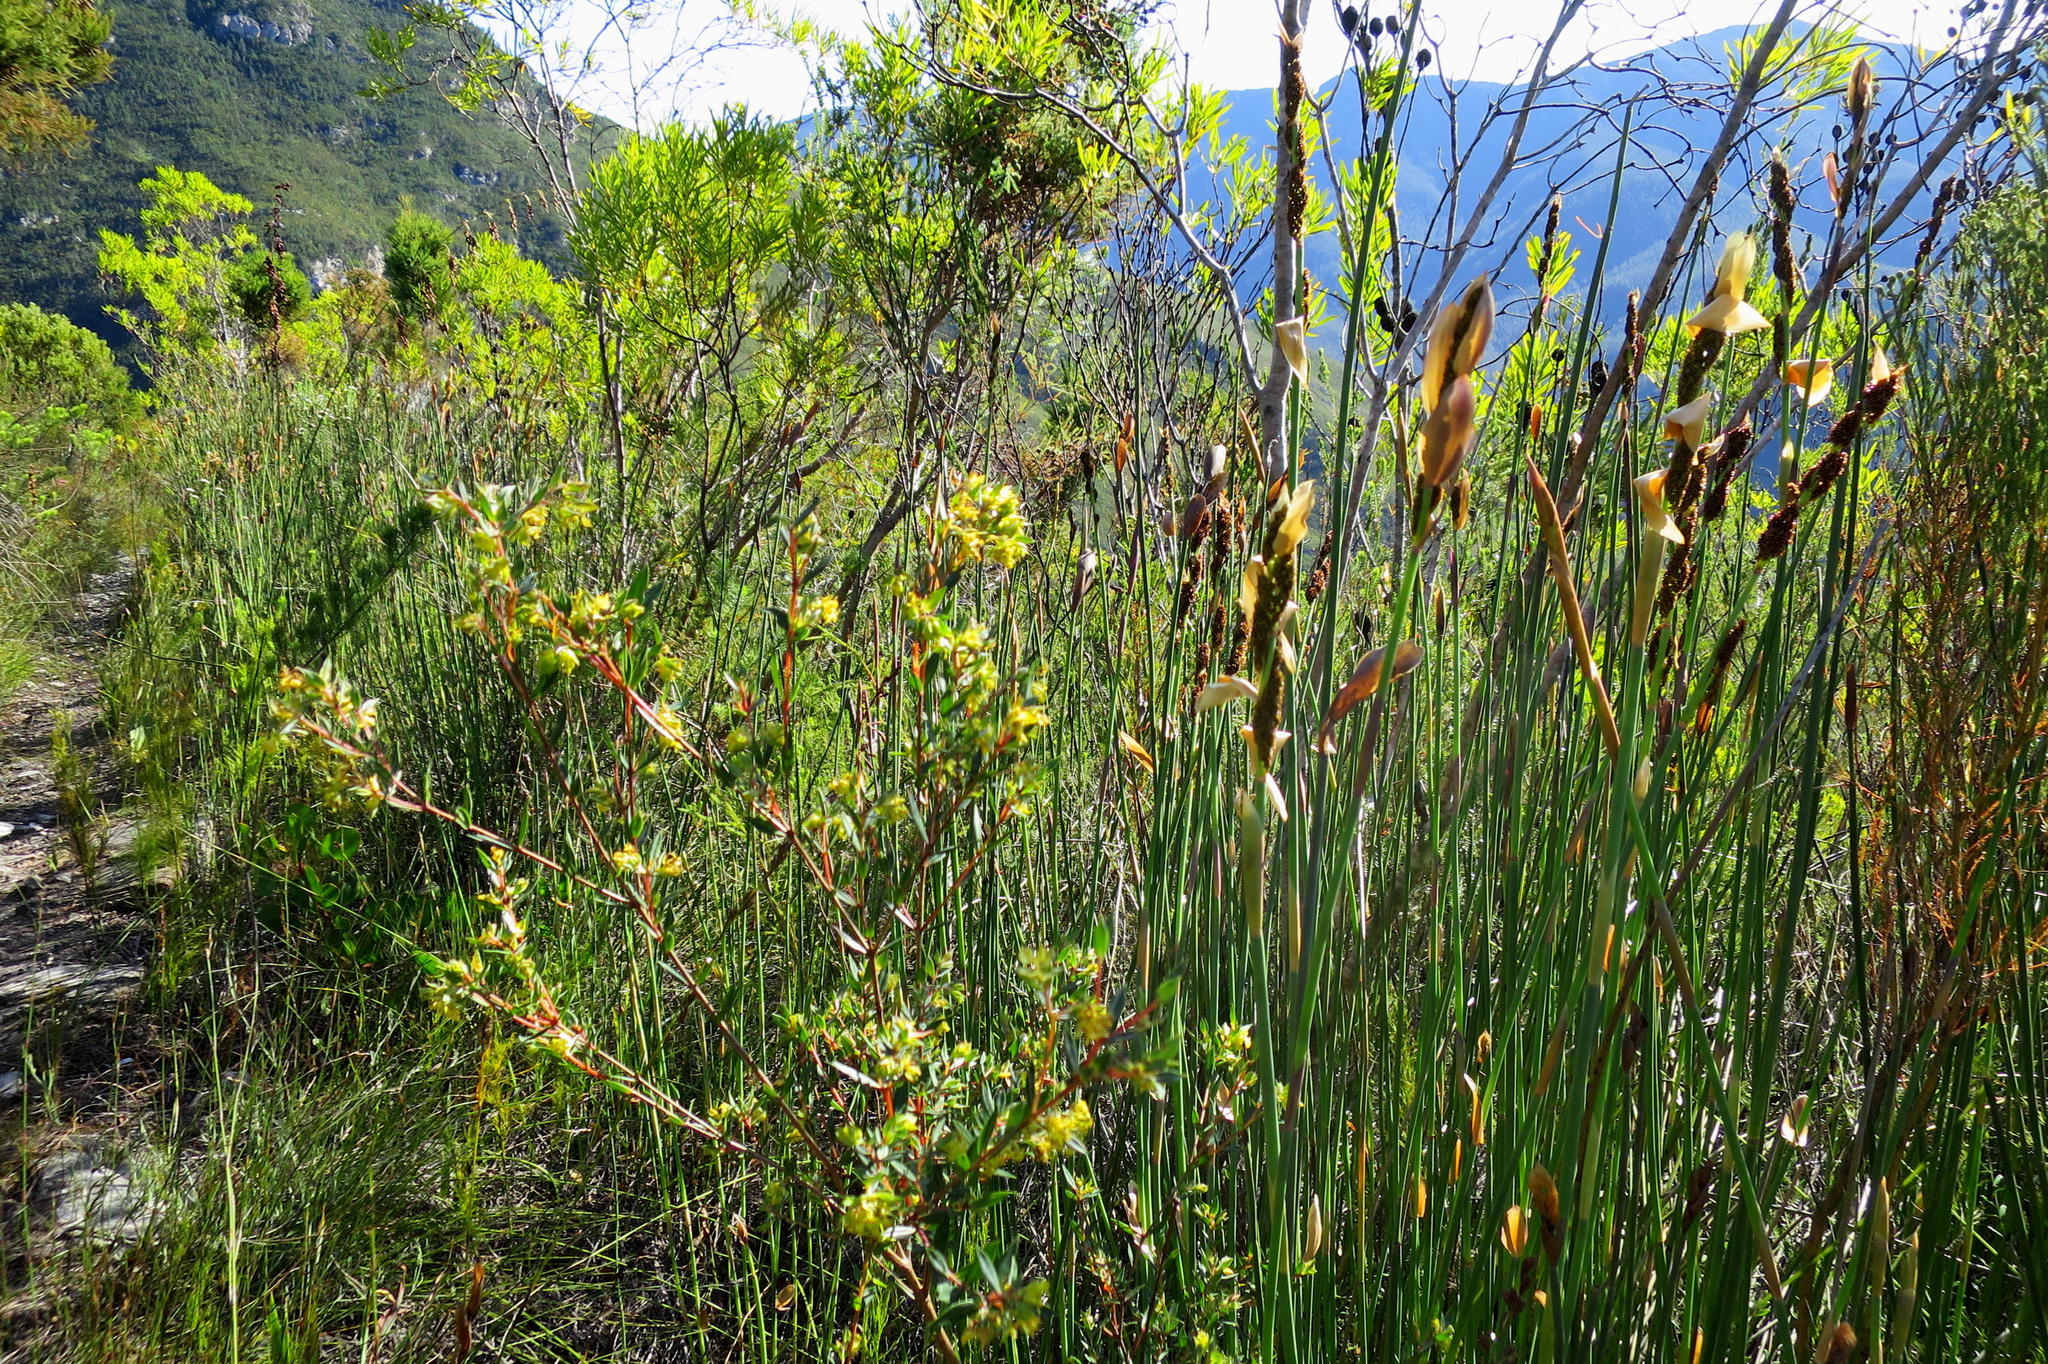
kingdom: Plantae
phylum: Tracheophyta
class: Magnoliopsida
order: Myrtales
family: Penaeaceae
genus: Penaea
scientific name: Penaea acutifolia
